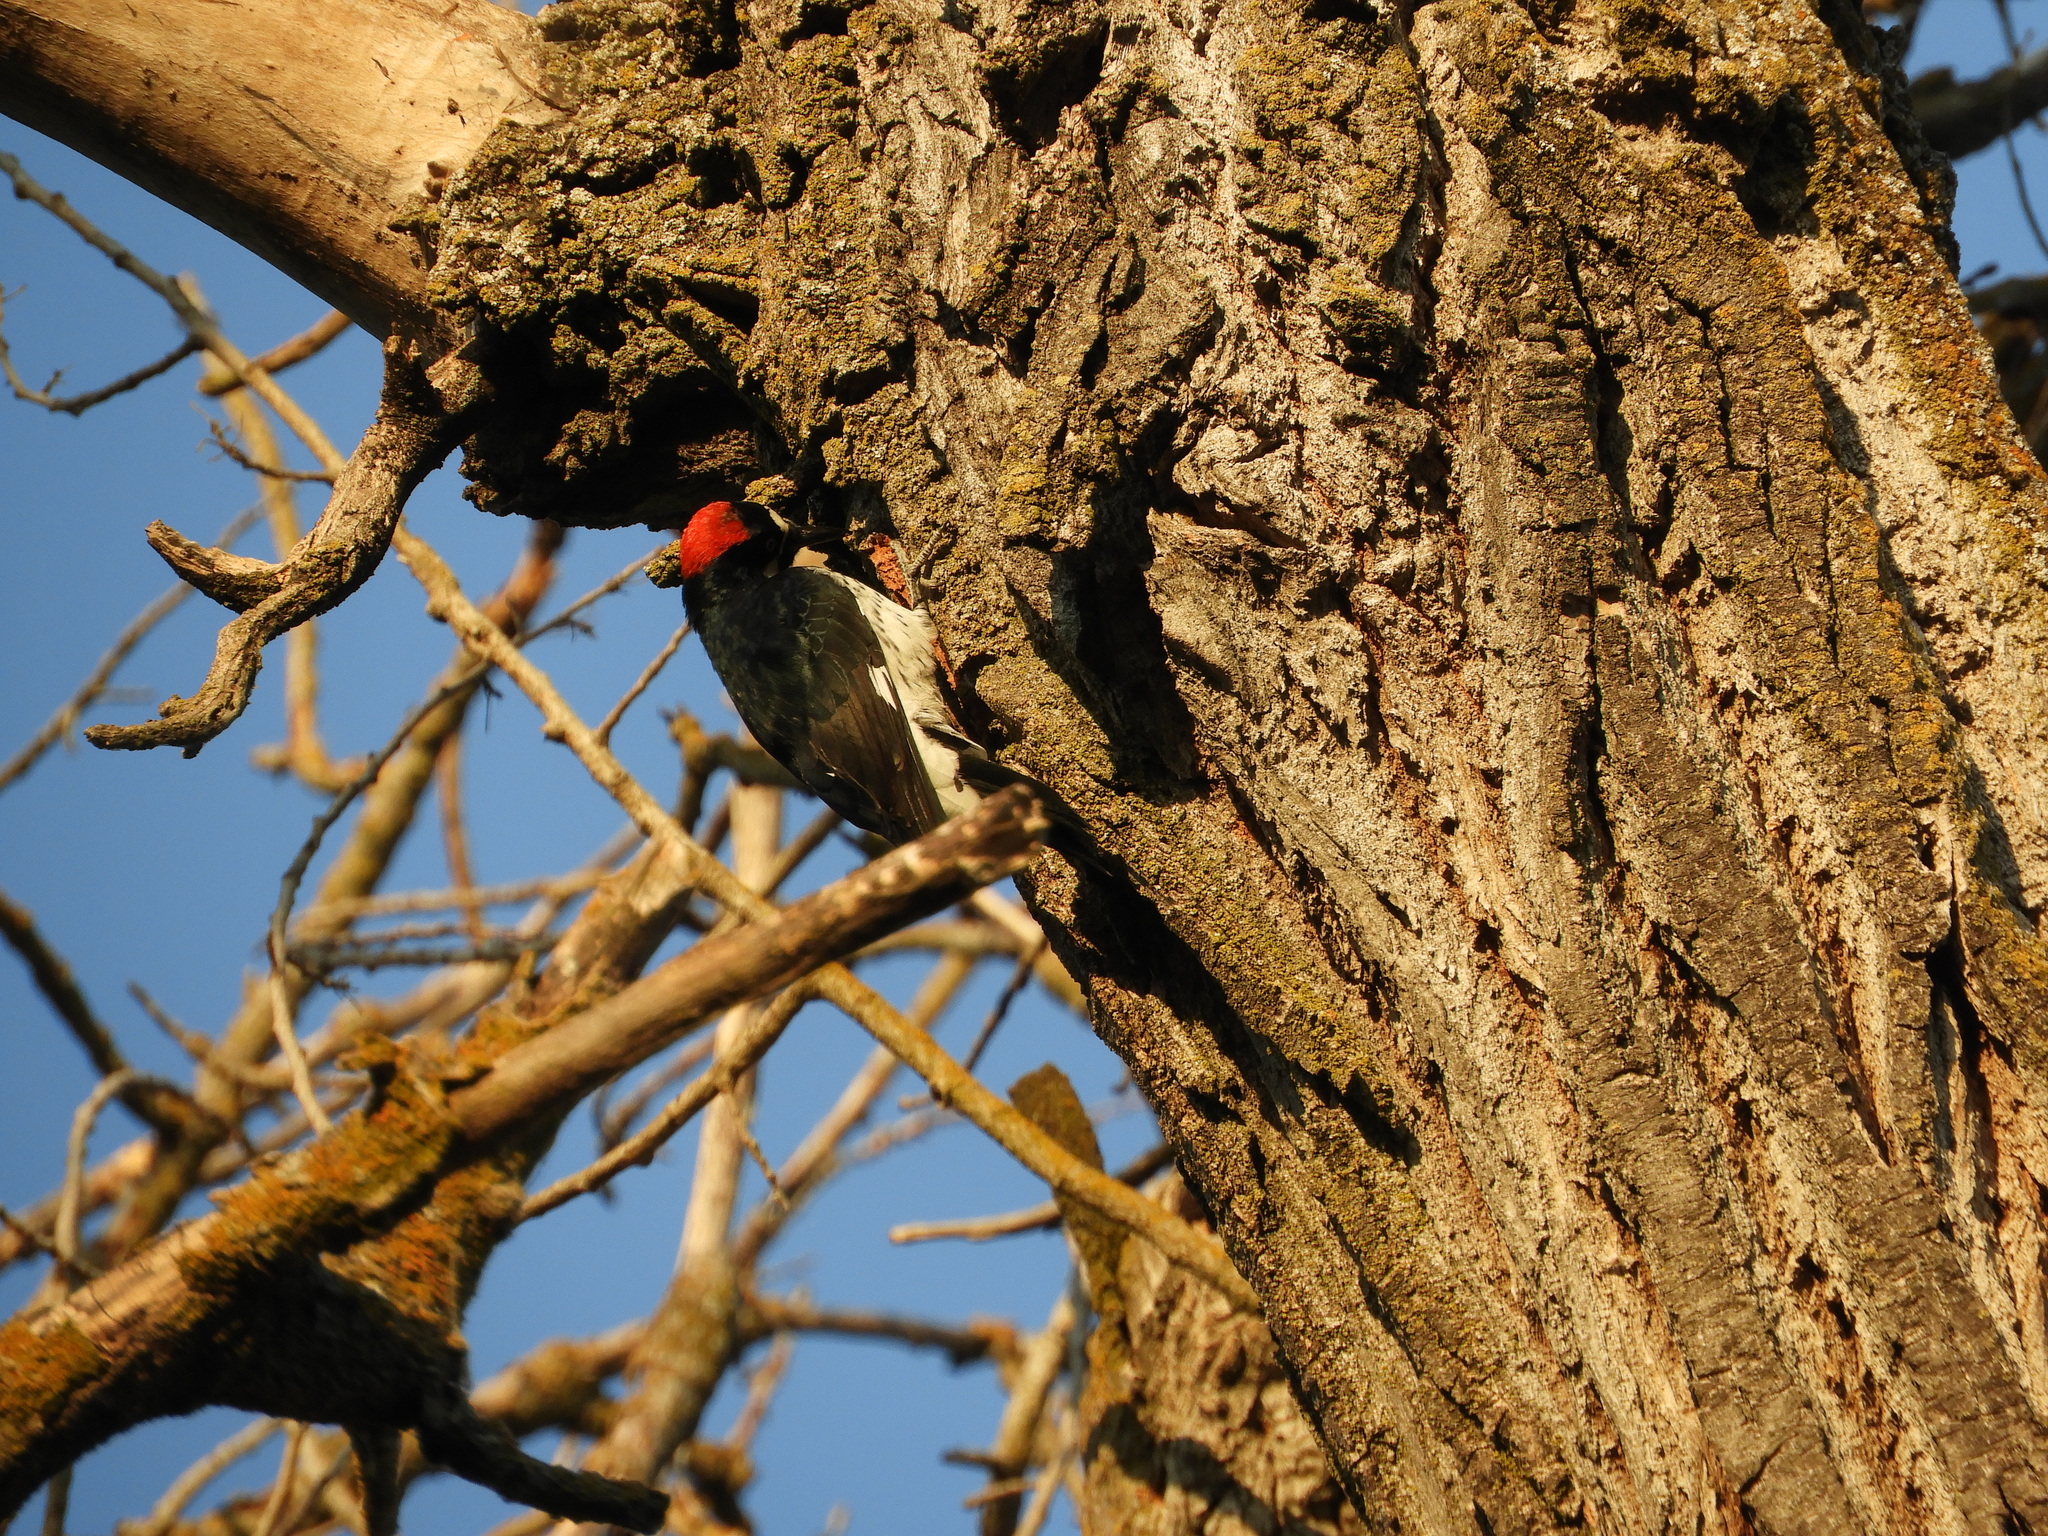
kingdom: Animalia
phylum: Chordata
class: Aves
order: Piciformes
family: Picidae
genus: Melanerpes
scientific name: Melanerpes formicivorus
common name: Acorn woodpecker
